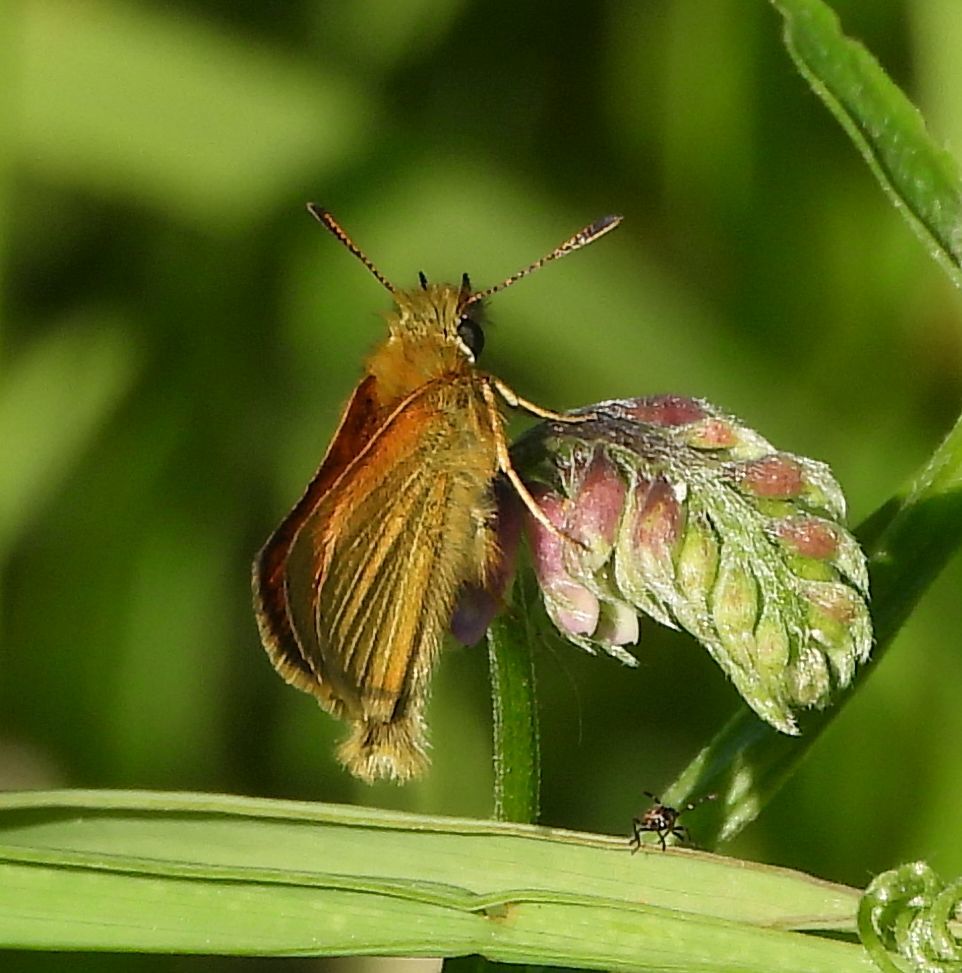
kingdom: Animalia
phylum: Arthropoda
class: Insecta
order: Lepidoptera
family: Hesperiidae
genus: Thymelicus
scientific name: Thymelicus lineola
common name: Essex skipper
